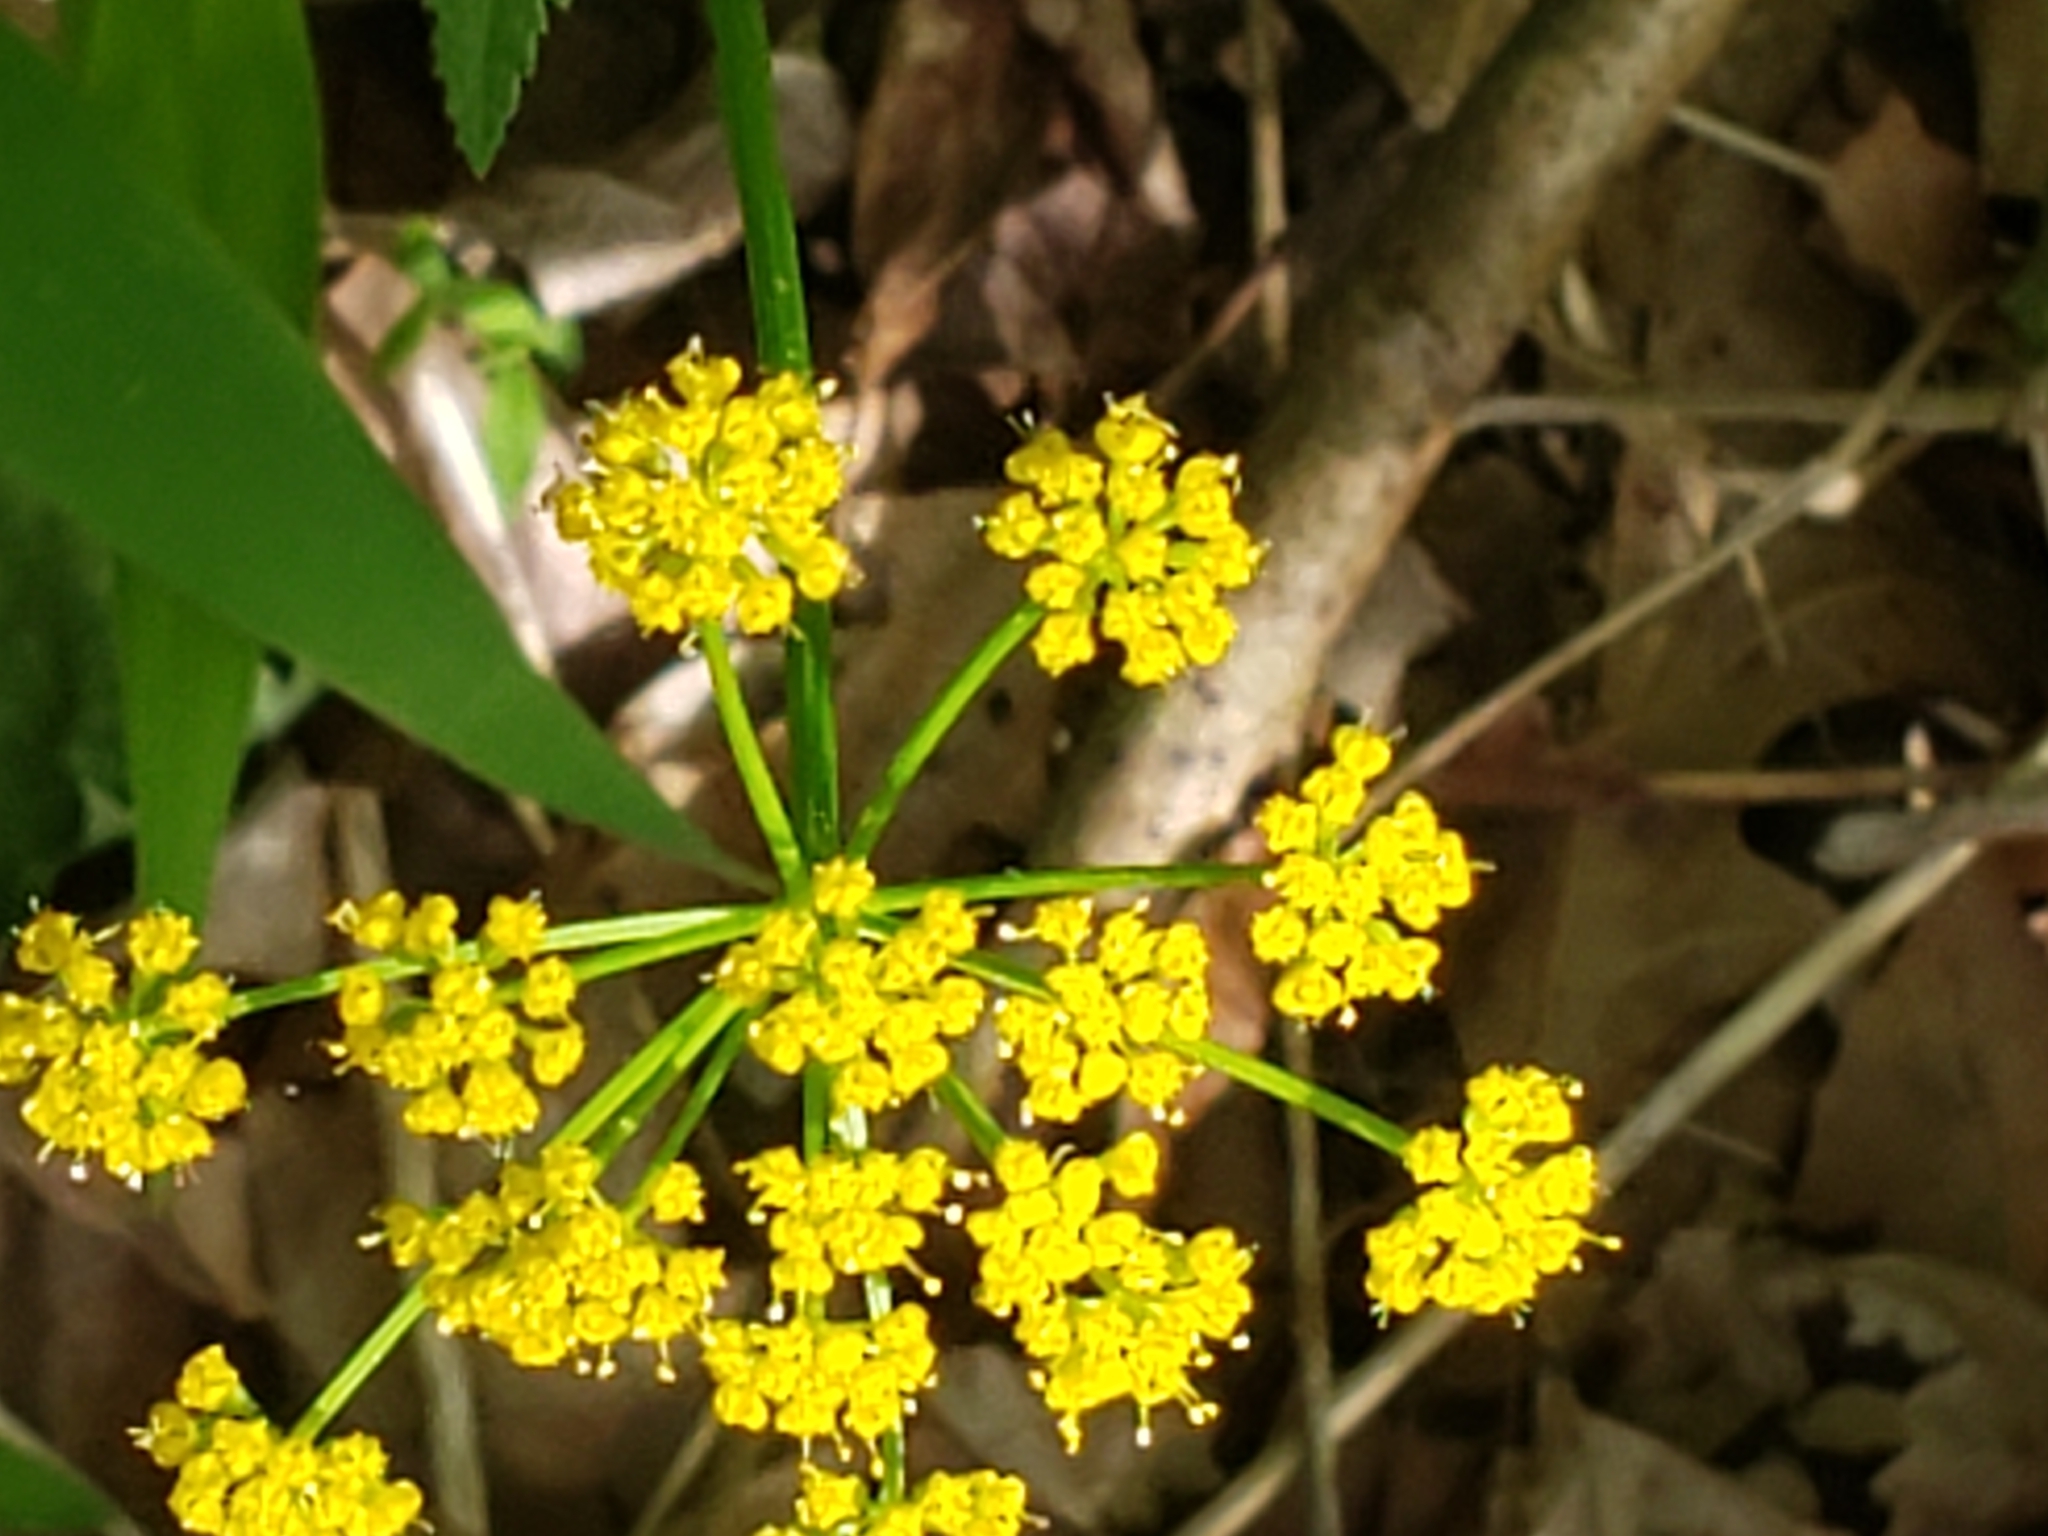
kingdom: Plantae
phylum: Tracheophyta
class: Magnoliopsida
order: Apiales
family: Apiaceae
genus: Zizia
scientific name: Zizia aurea
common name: Golden alexanders
